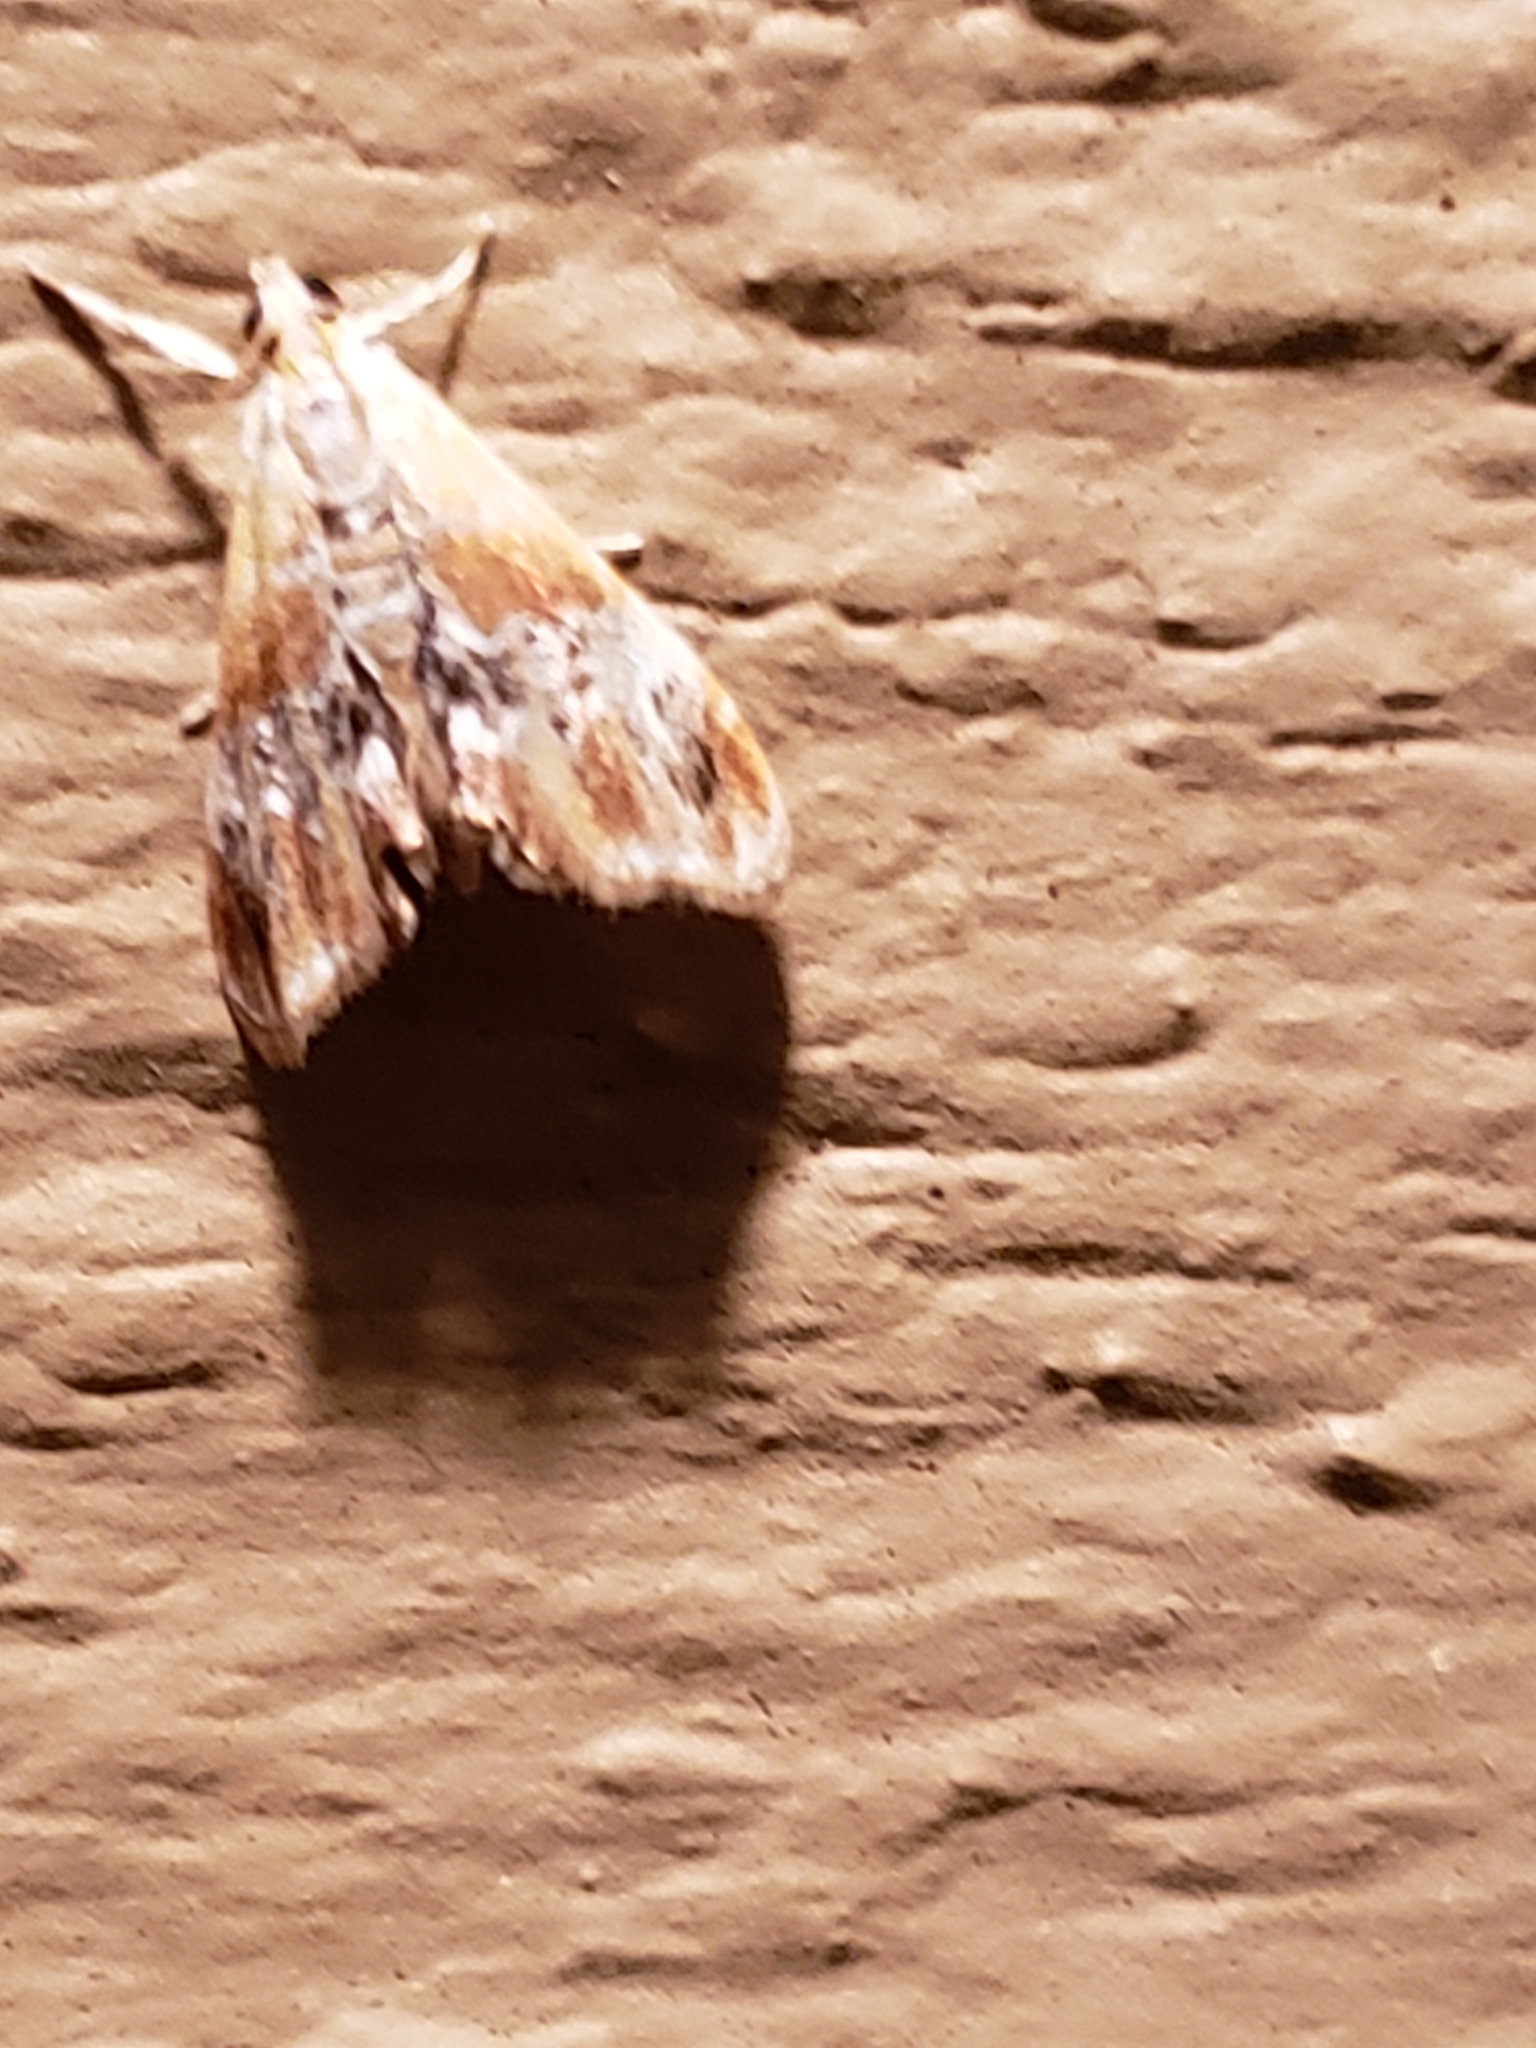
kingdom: Animalia
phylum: Arthropoda
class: Insecta
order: Lepidoptera
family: Crambidae
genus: Dicymolomia
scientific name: Dicymolomia julianalis
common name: Julia's dicymolomia moth
